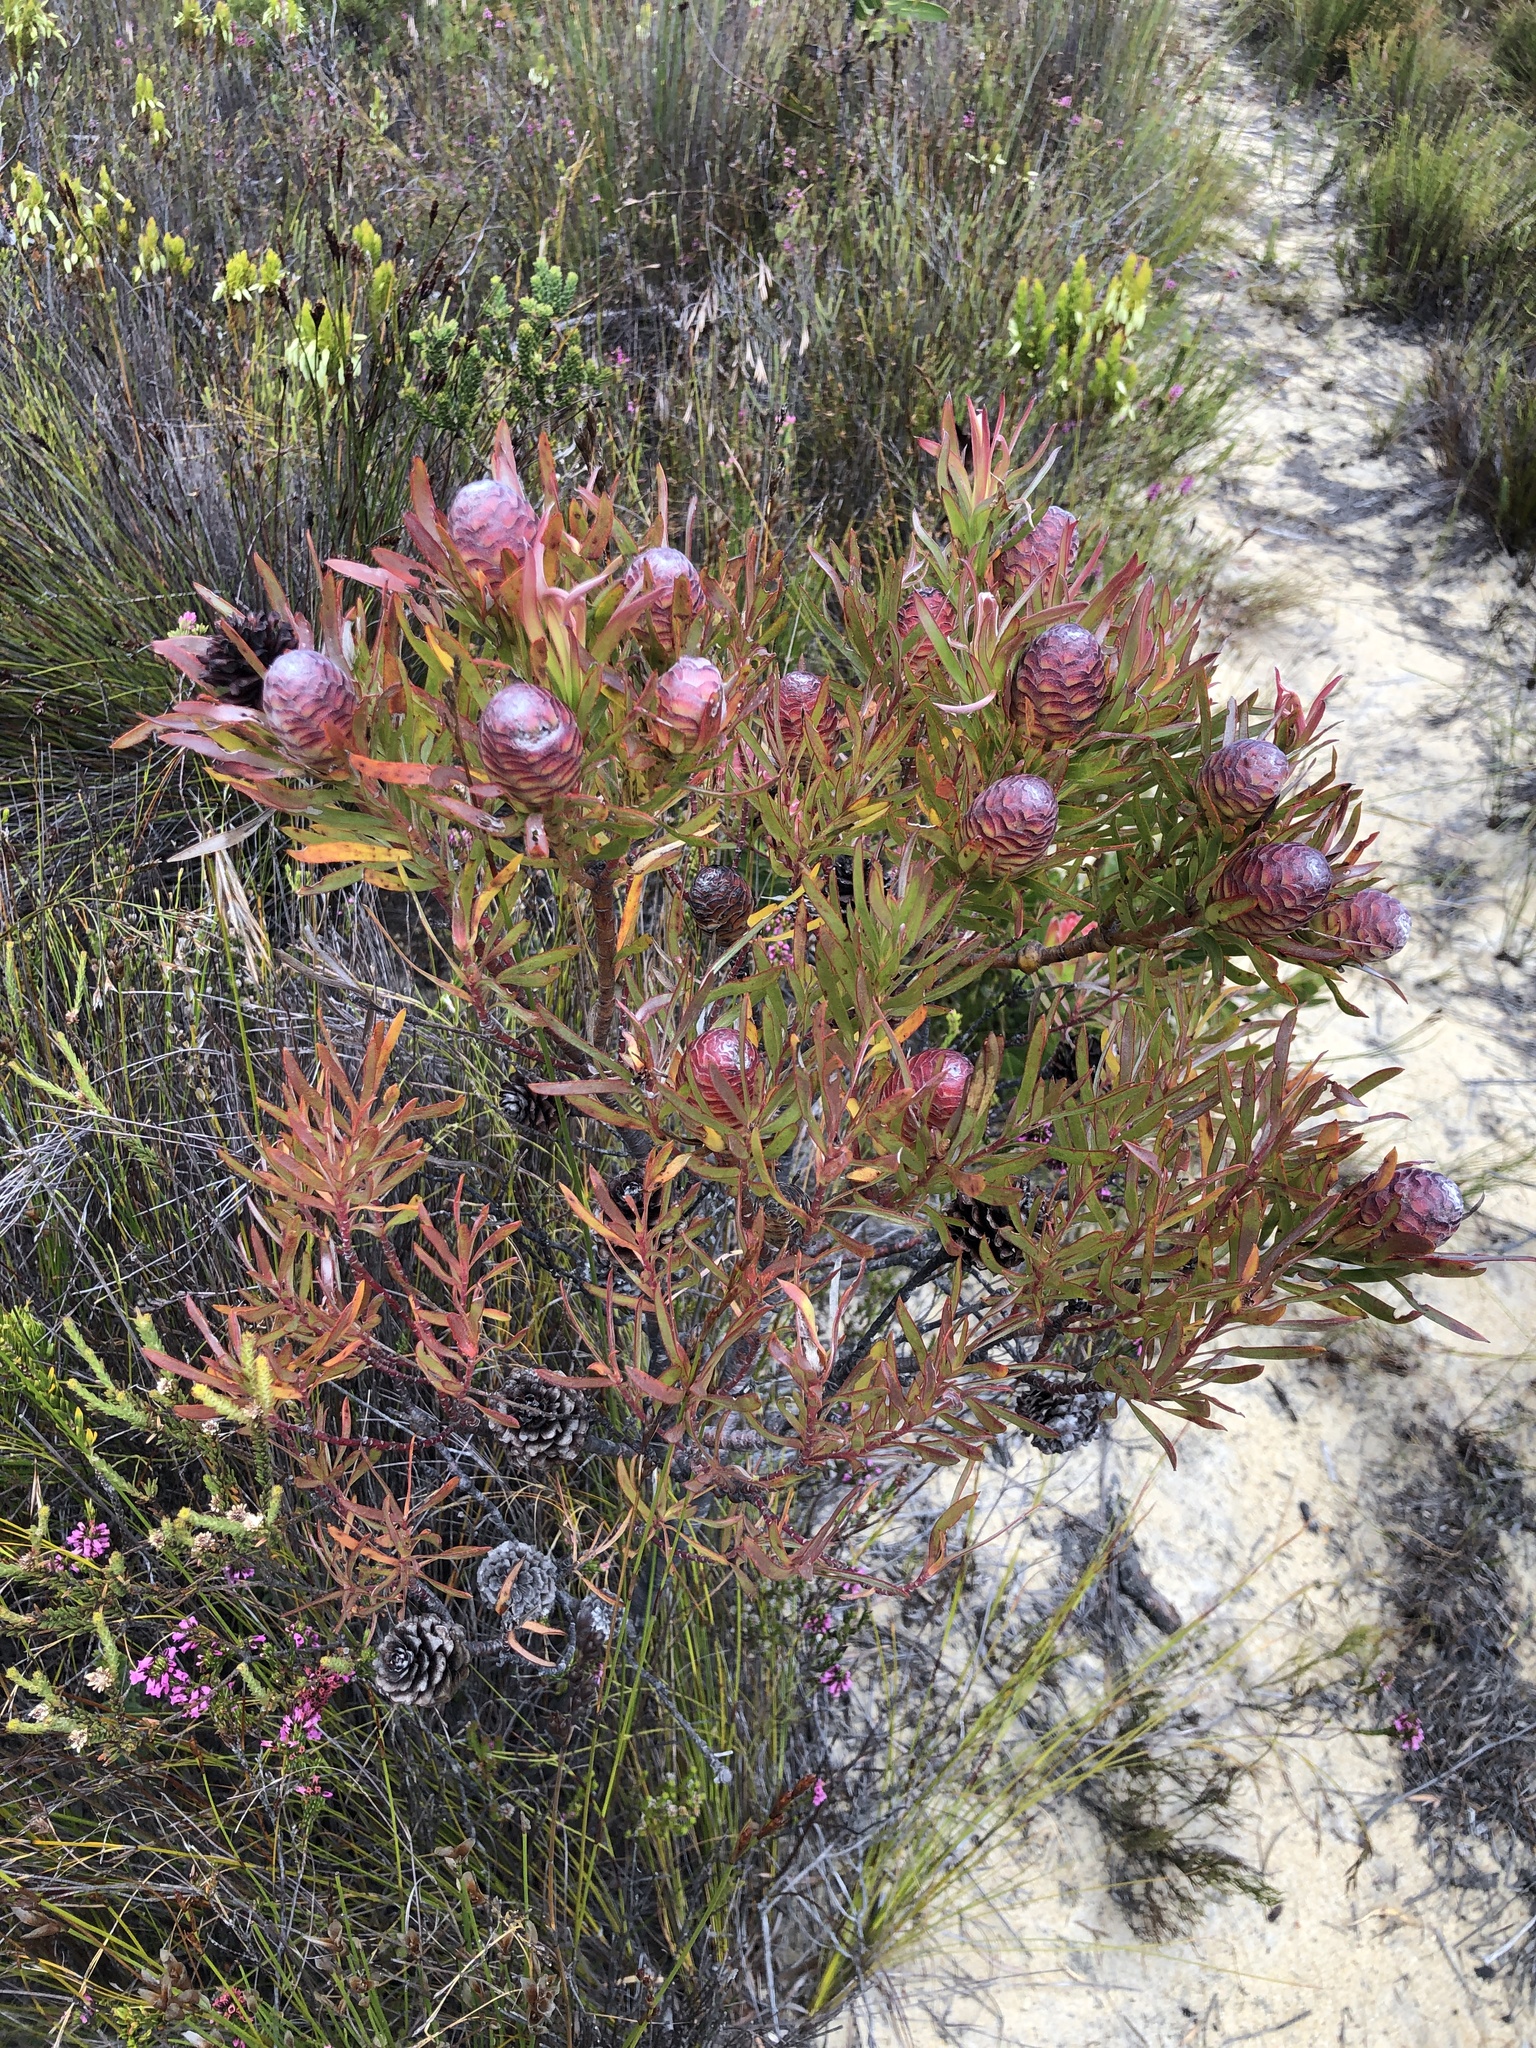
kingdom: Plantae
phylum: Tracheophyta
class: Magnoliopsida
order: Proteales
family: Proteaceae
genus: Leucadendron
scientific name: Leucadendron xanthoconus
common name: Sickle-leaf conebush
